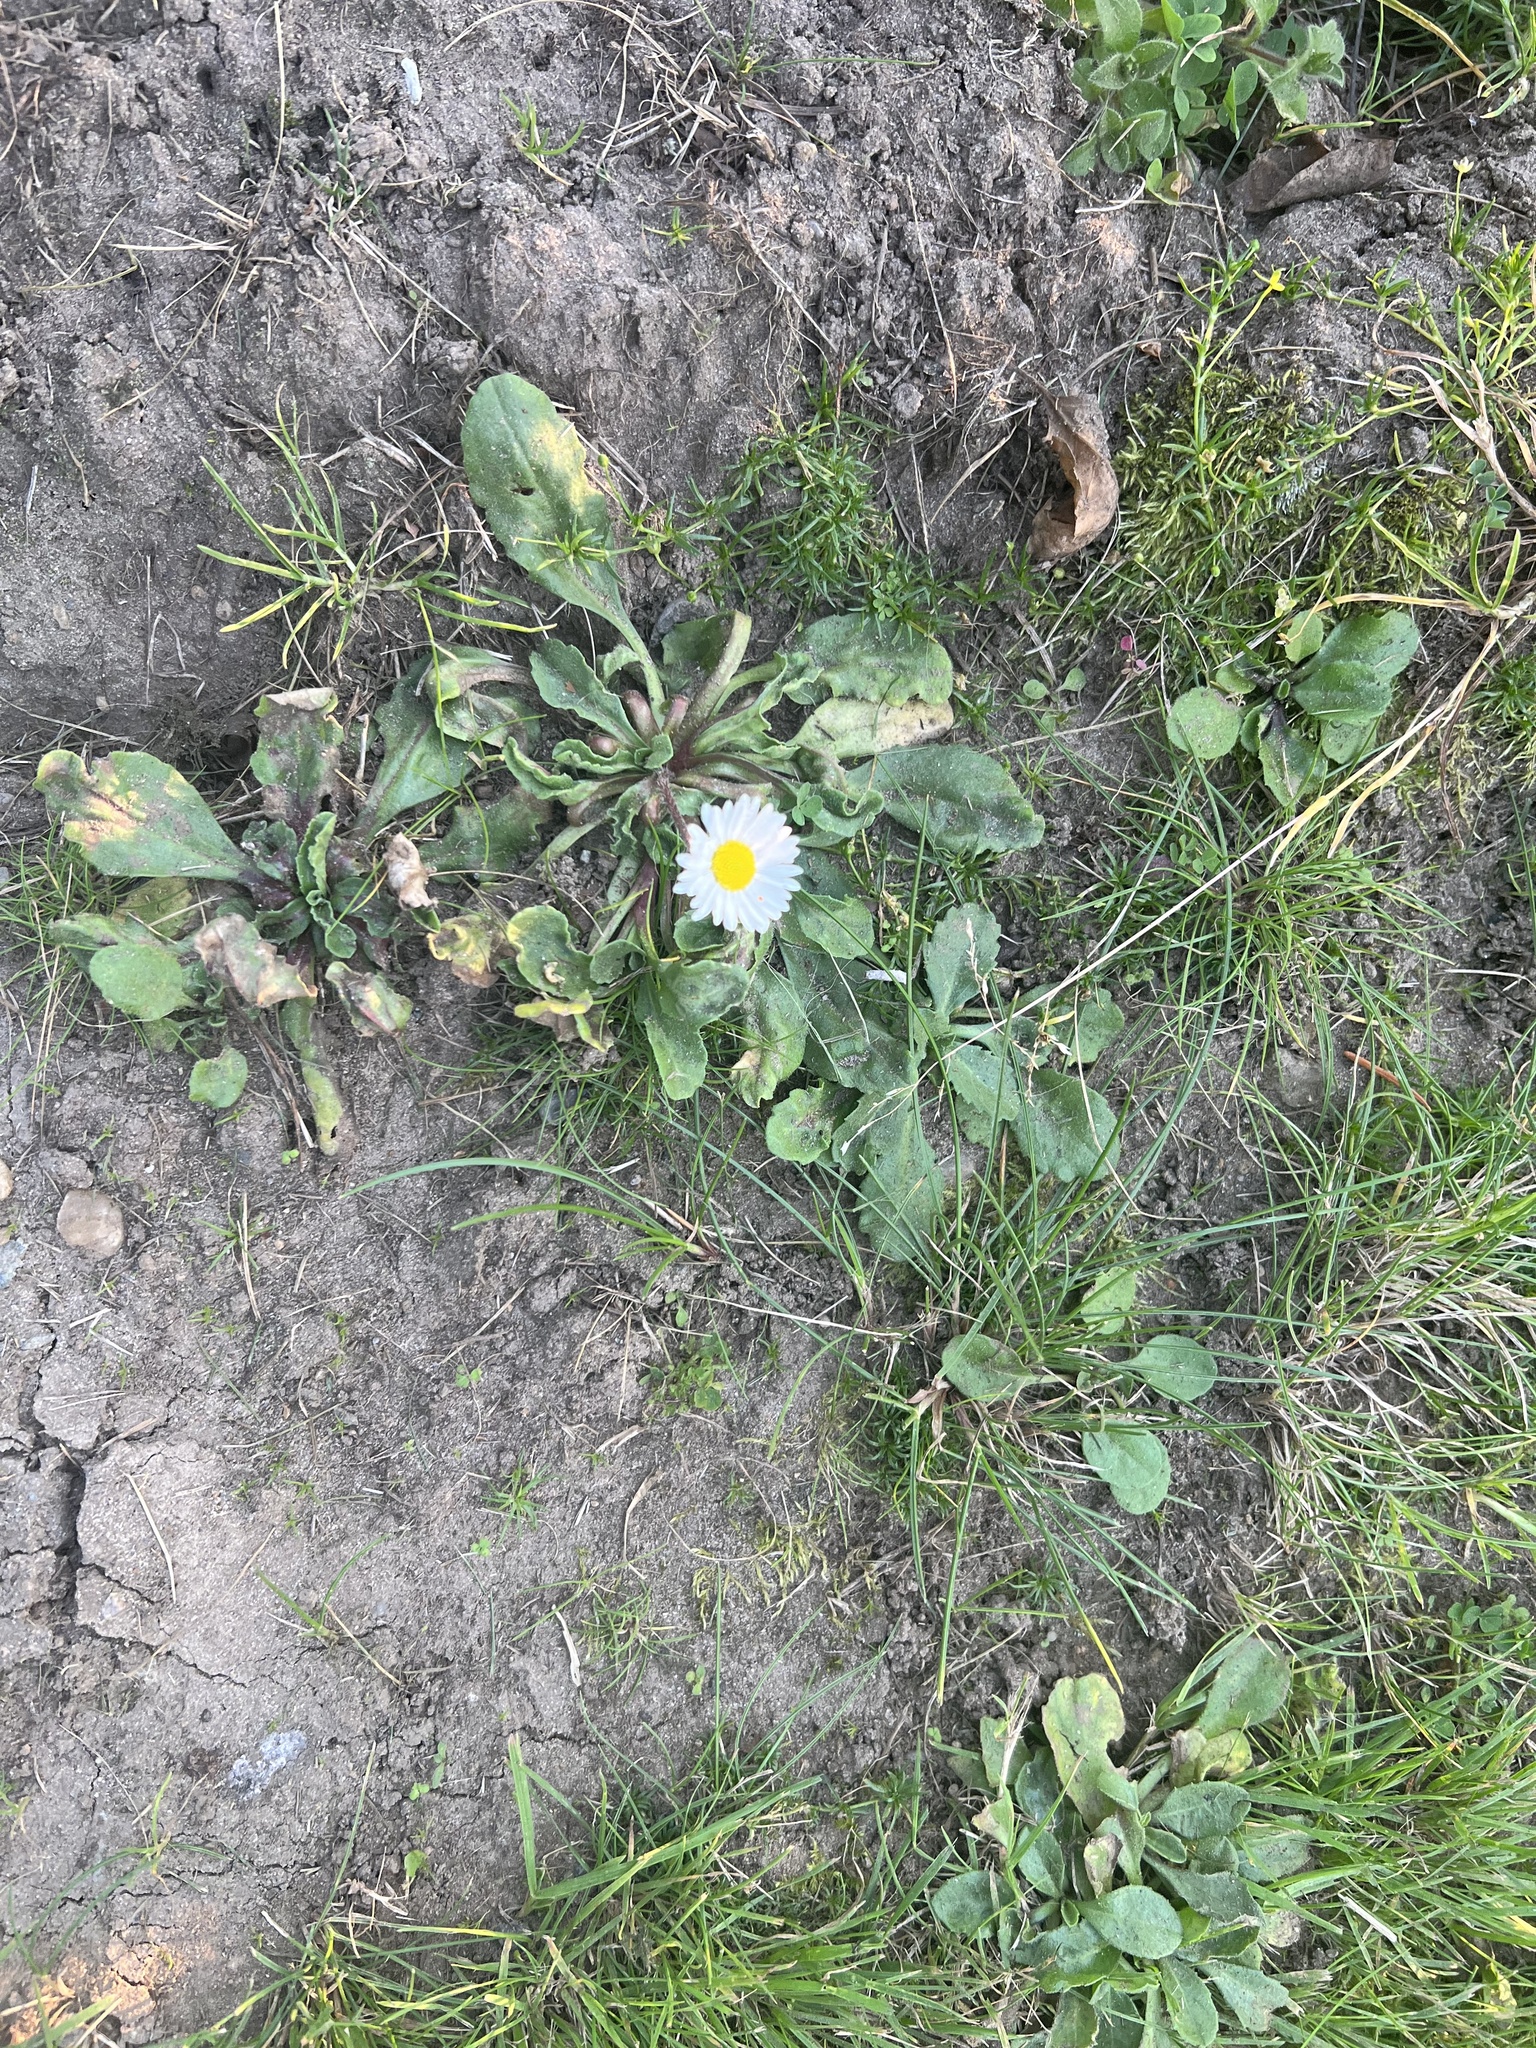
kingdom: Plantae
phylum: Tracheophyta
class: Magnoliopsida
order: Asterales
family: Asteraceae
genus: Bellis
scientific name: Bellis perennis
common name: Lawndaisy
